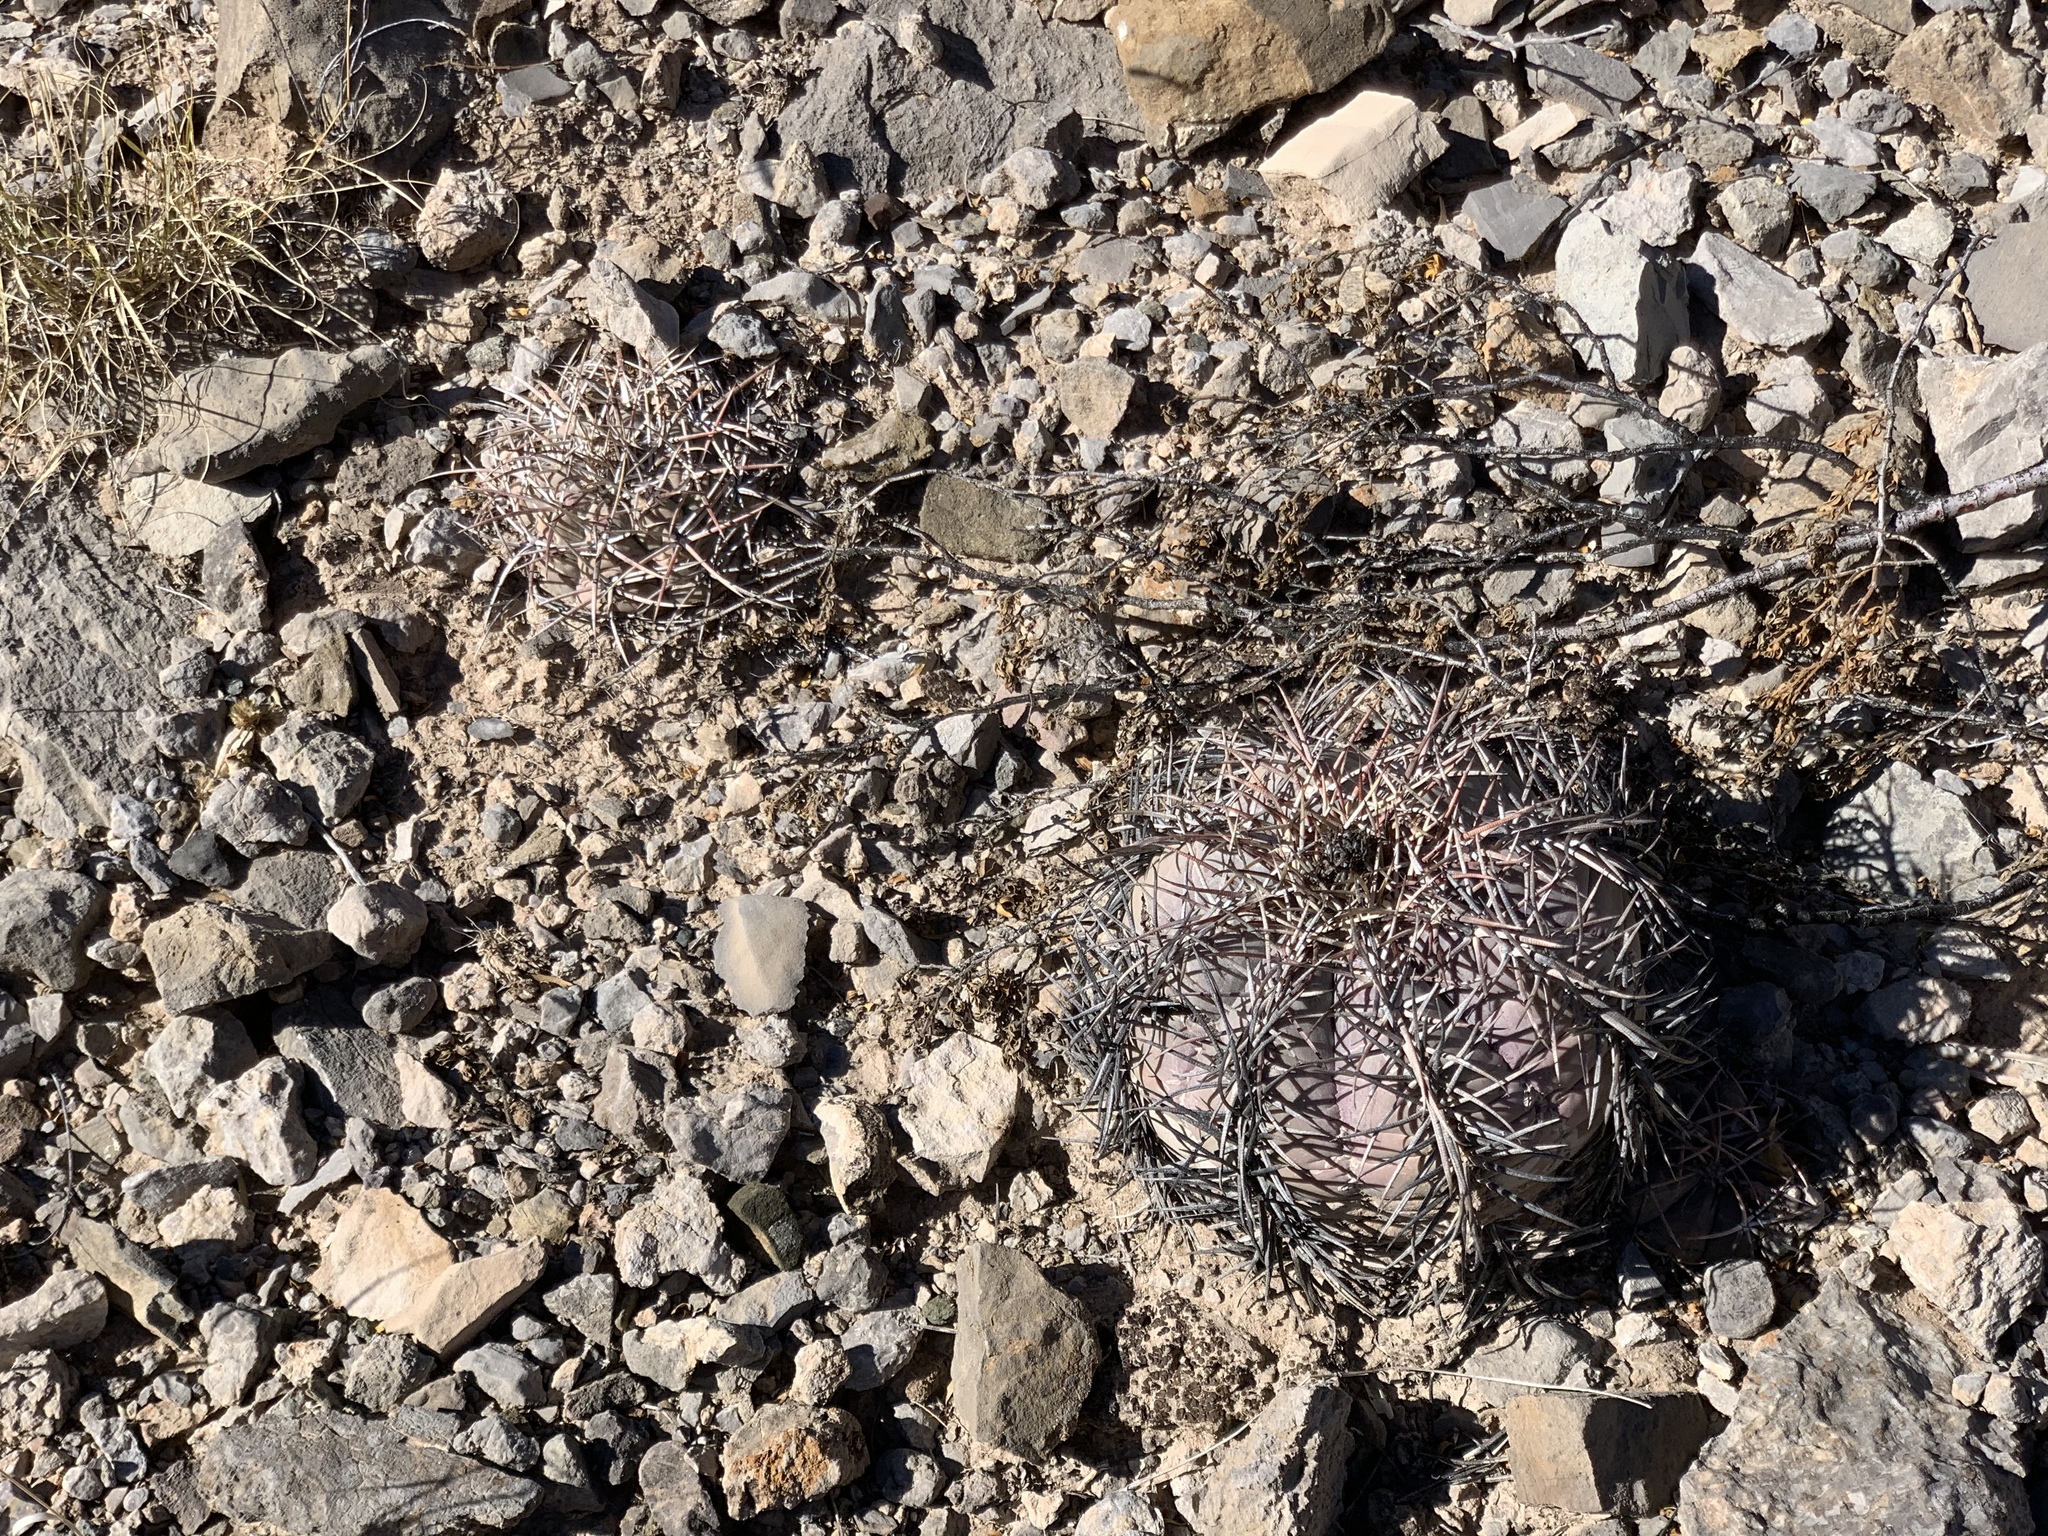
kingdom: Plantae
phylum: Tracheophyta
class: Magnoliopsida
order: Caryophyllales
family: Cactaceae
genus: Echinocactus
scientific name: Echinocactus horizonthalonius
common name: Devilshead
